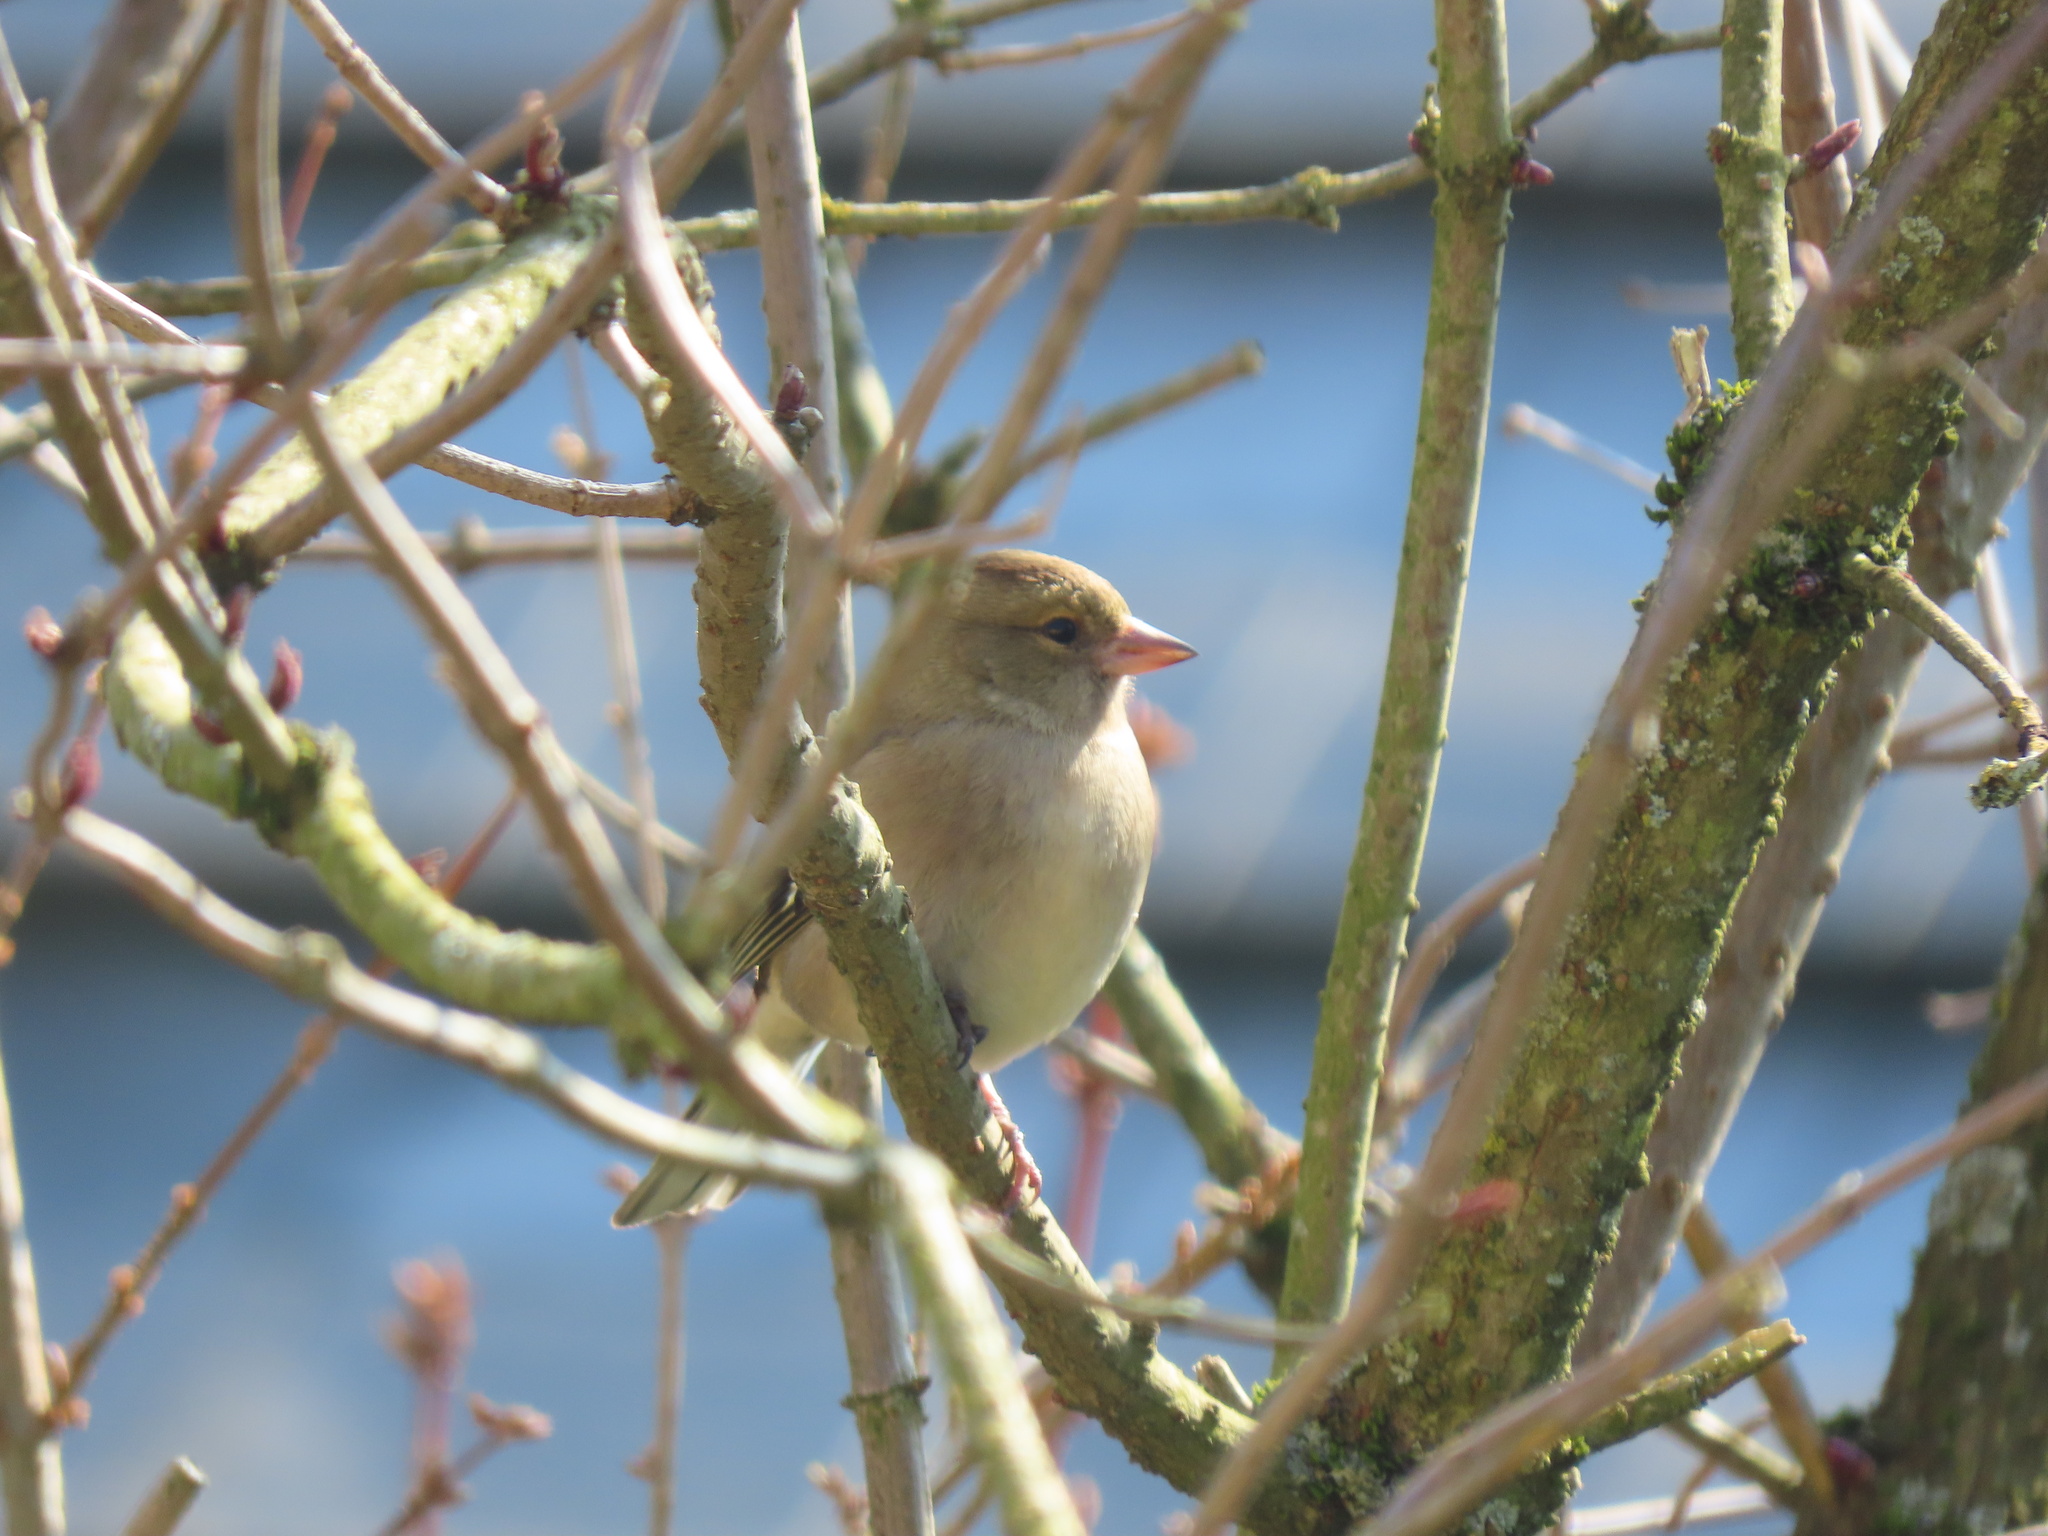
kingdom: Animalia
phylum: Chordata
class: Aves
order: Passeriformes
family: Fringillidae
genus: Fringilla
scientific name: Fringilla coelebs
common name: Common chaffinch
